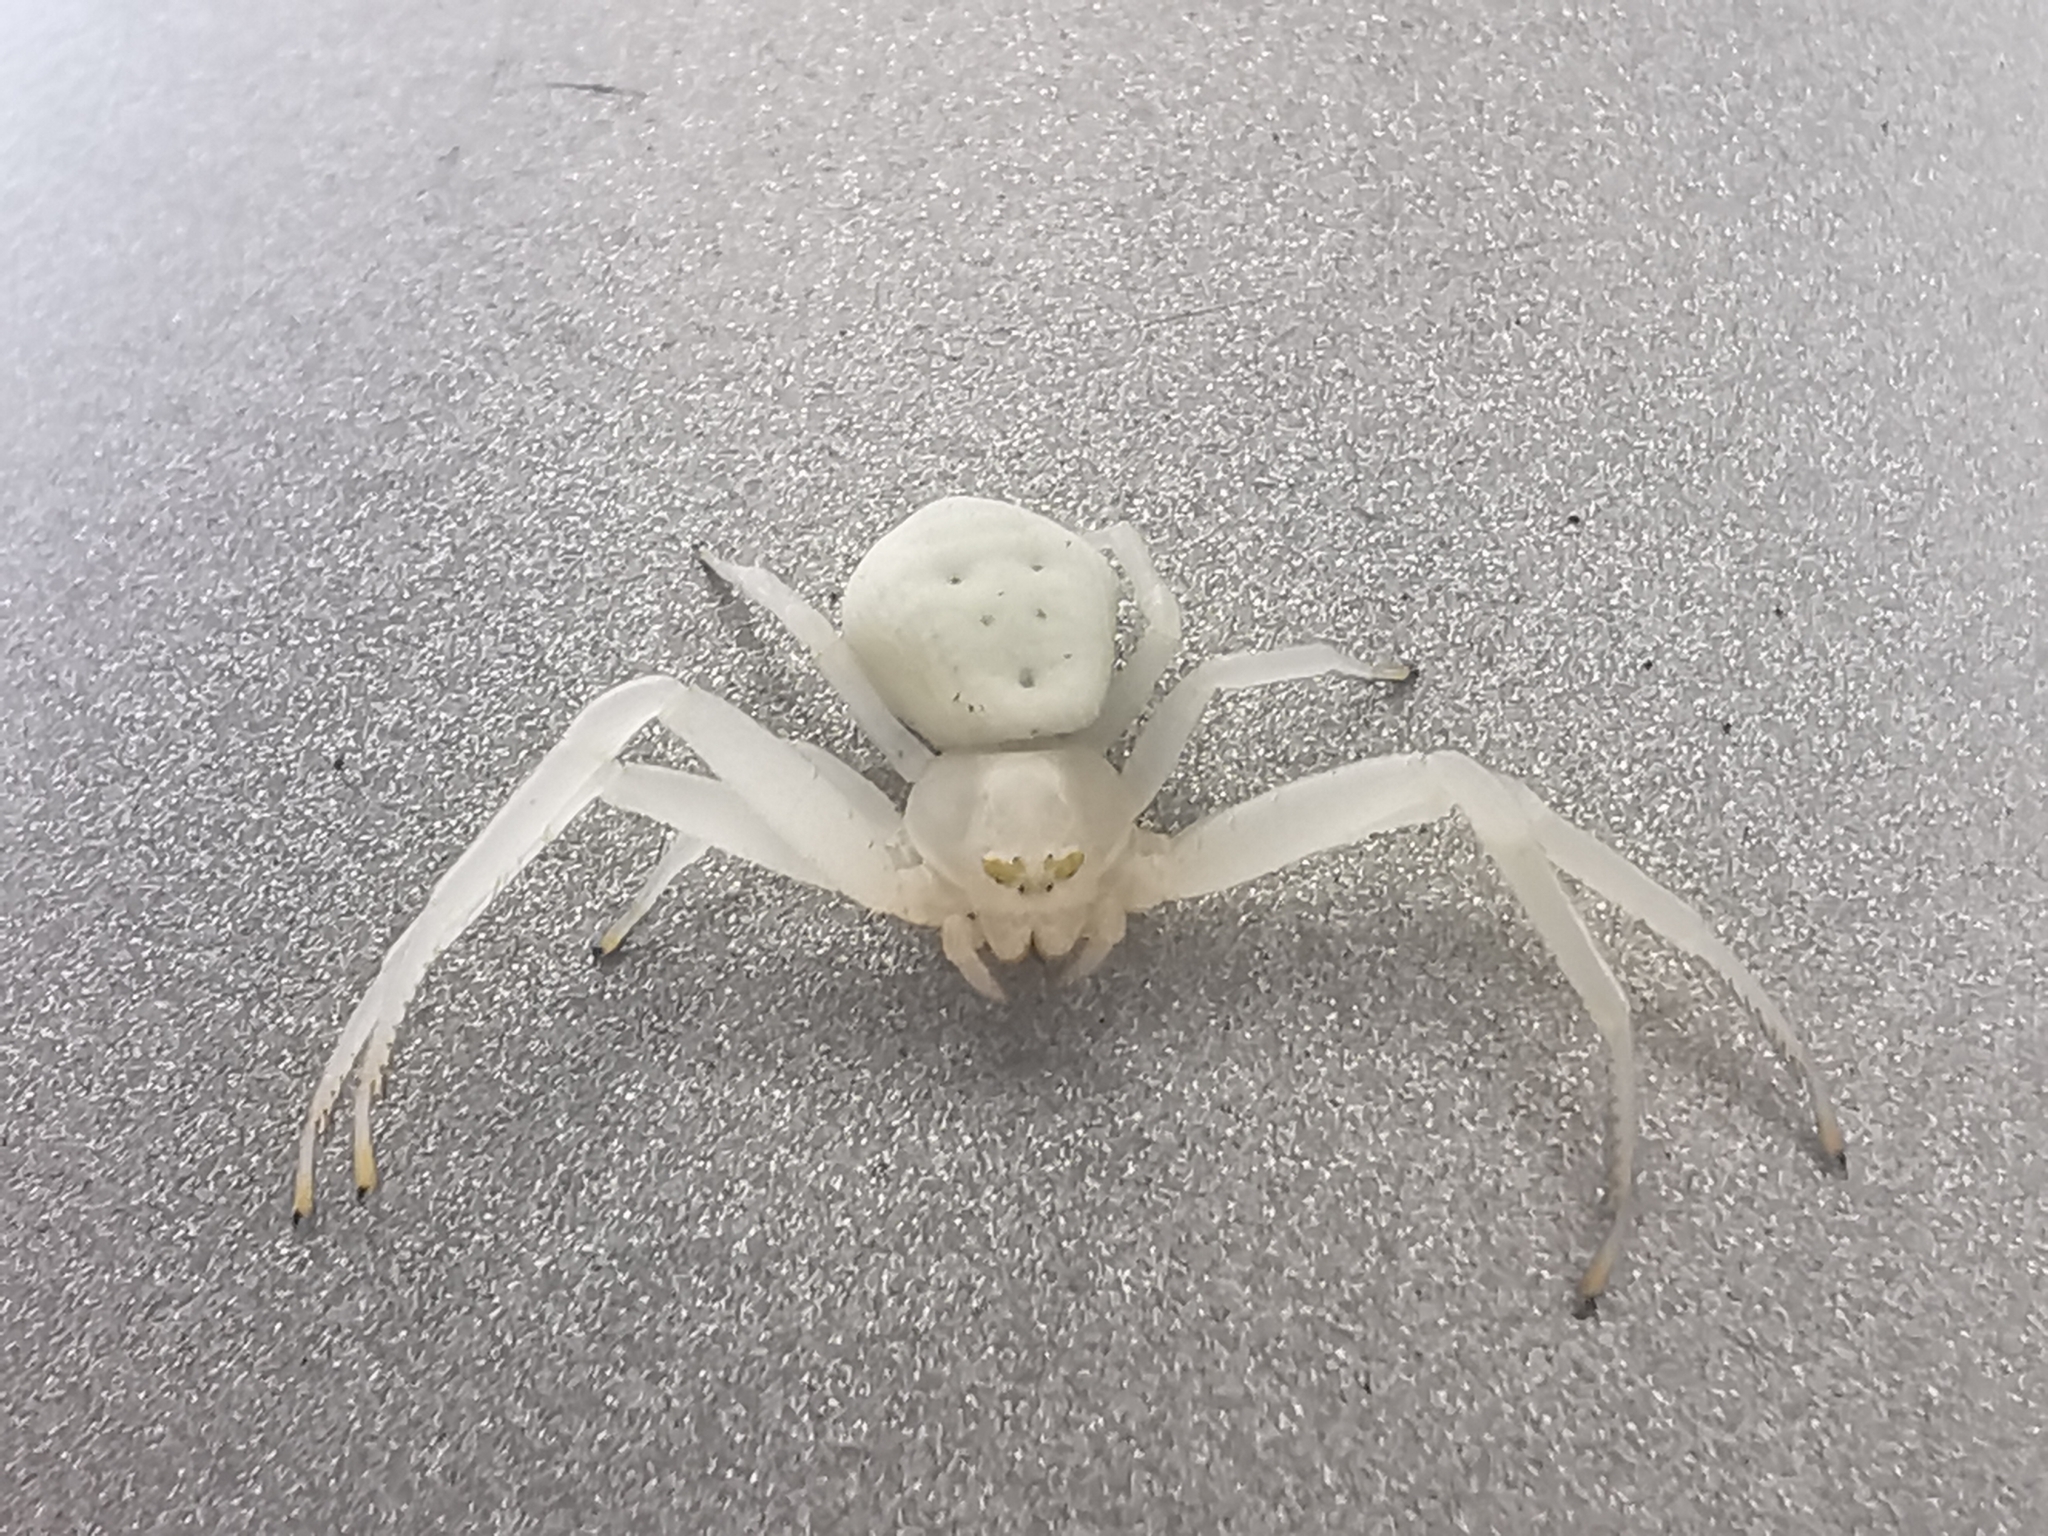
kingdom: Animalia
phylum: Arthropoda
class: Arachnida
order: Araneae
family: Thomisidae
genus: Misumena
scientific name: Misumena vatia
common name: Goldenrod crab spider
